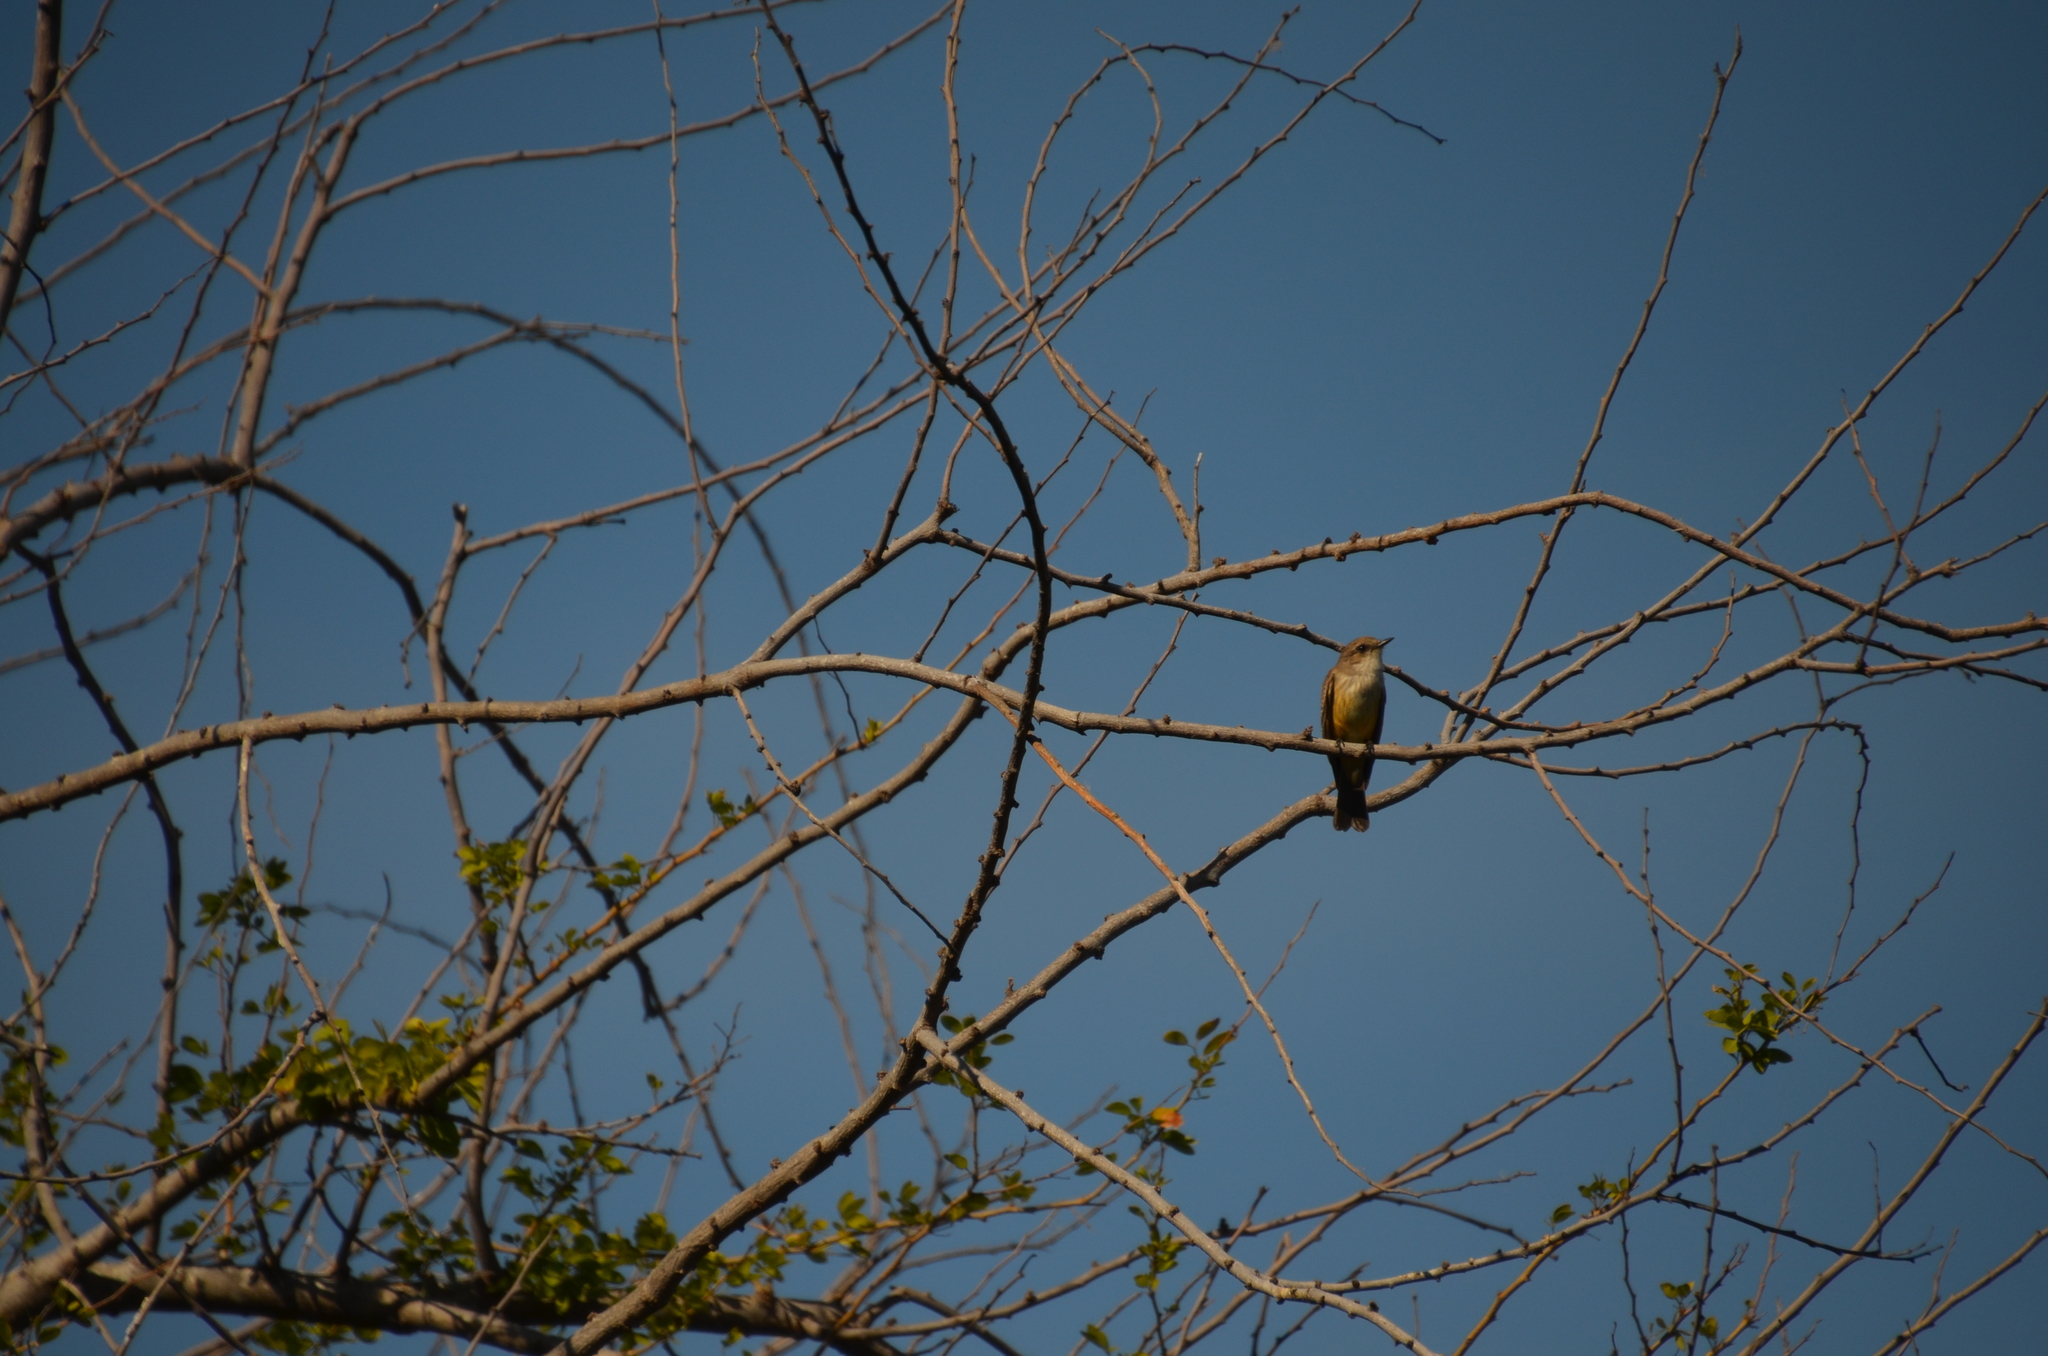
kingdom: Animalia
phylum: Chordata
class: Aves
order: Passeriformes
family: Tyrannidae
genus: Pyrocephalus
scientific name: Pyrocephalus rubinus
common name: Vermilion flycatcher
